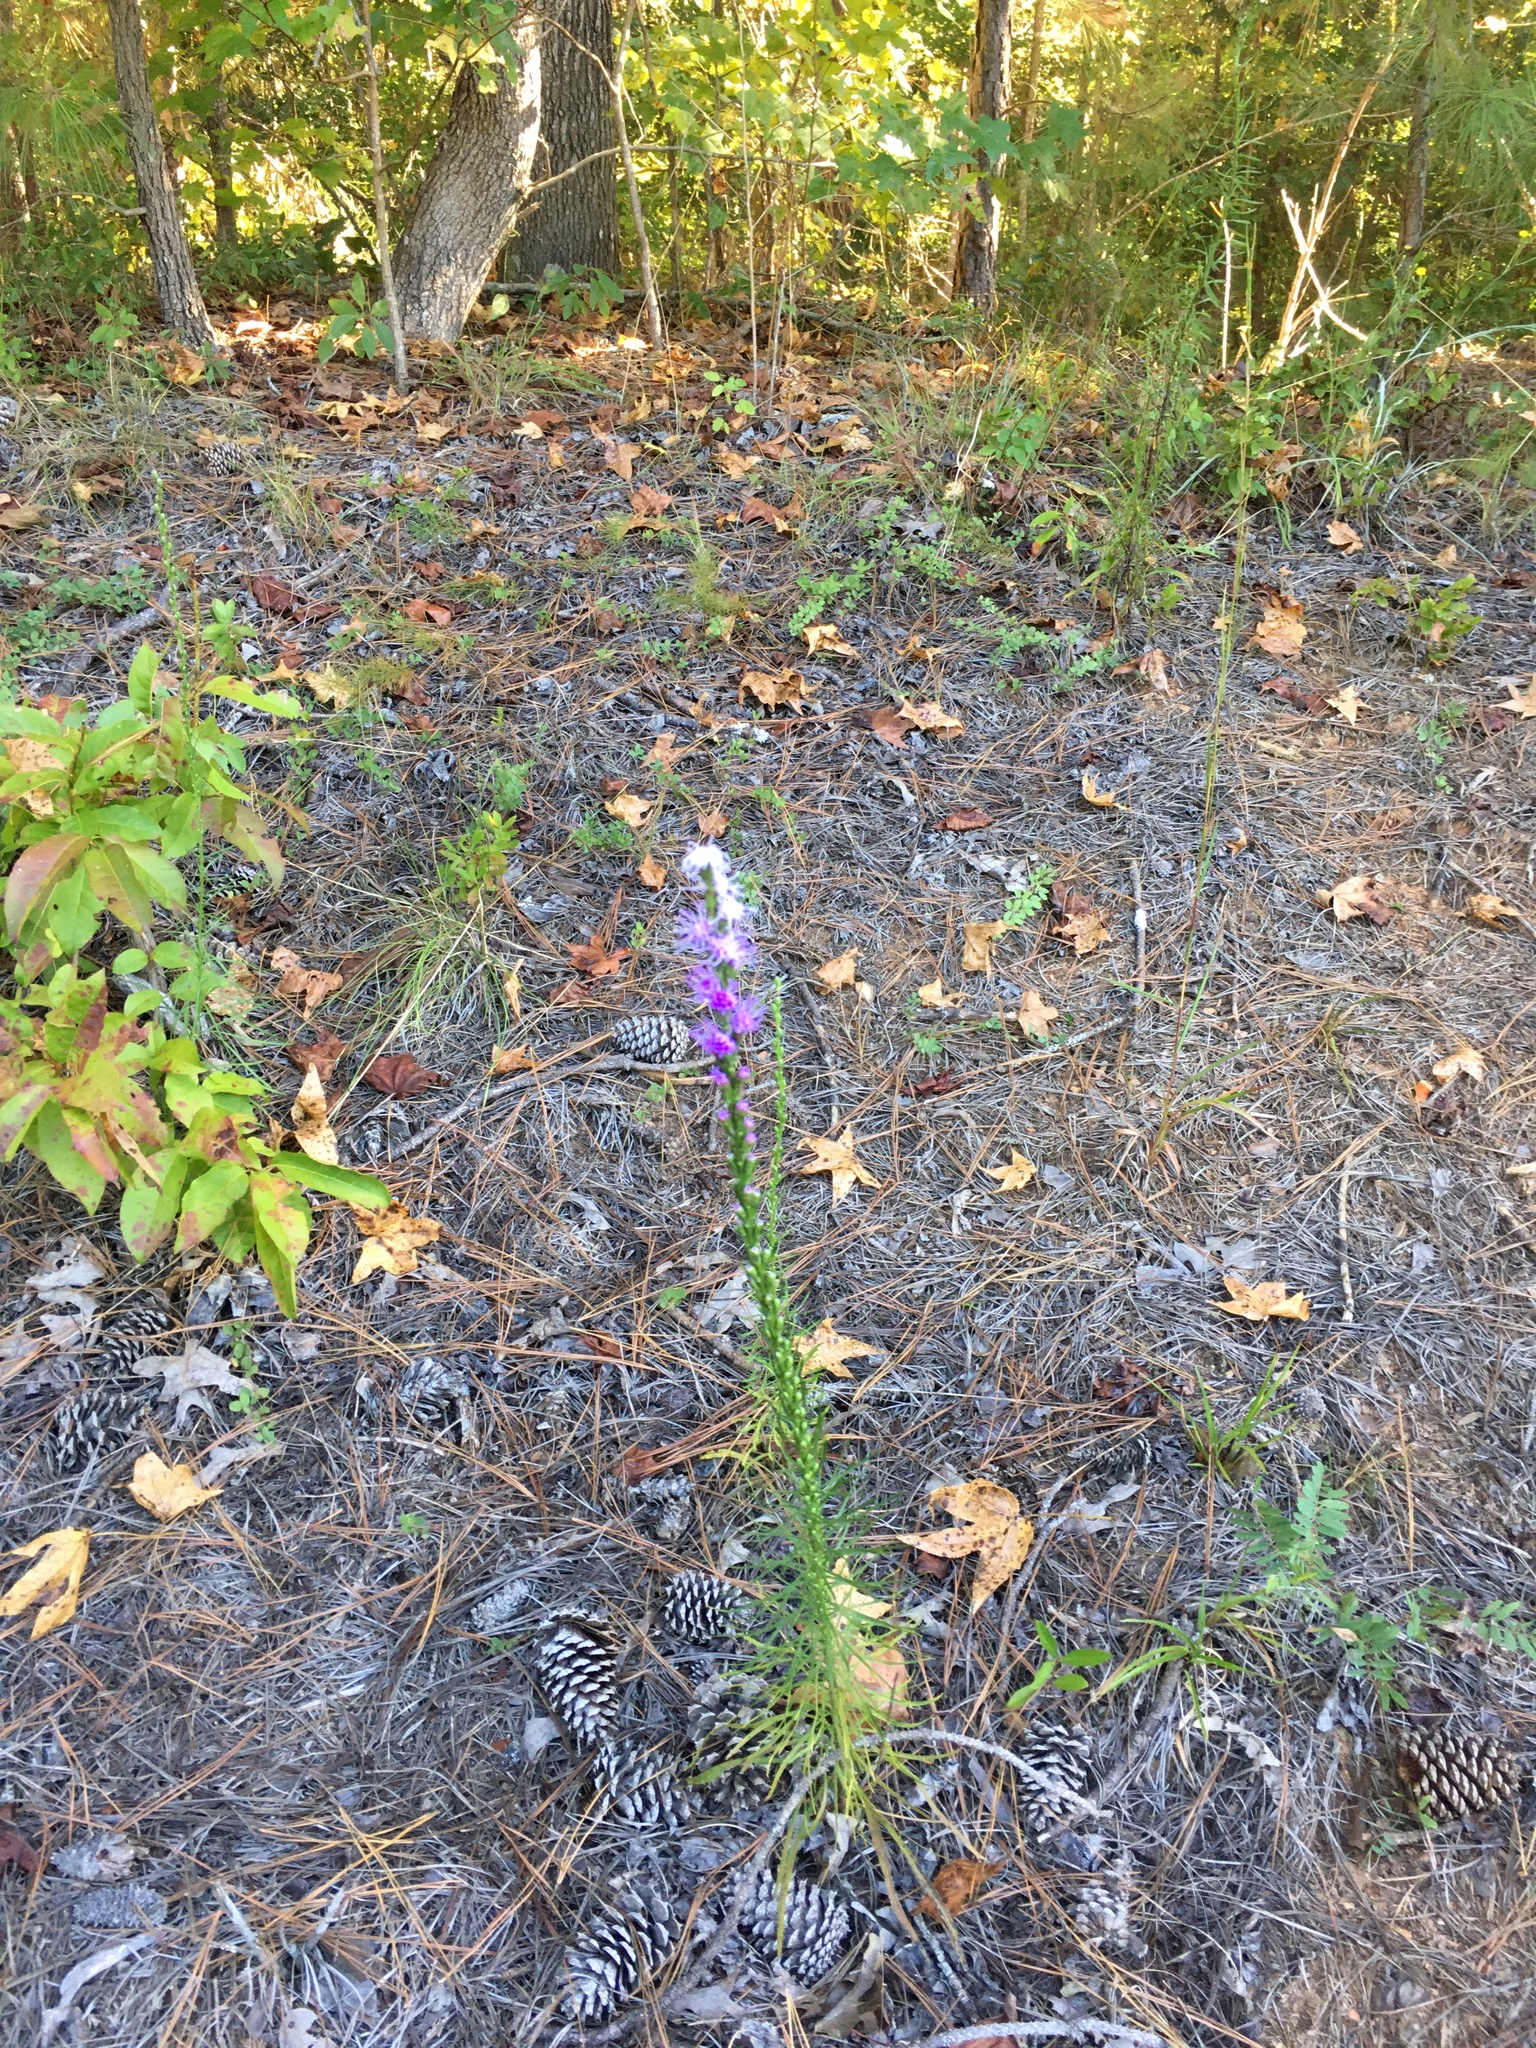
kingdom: Plantae
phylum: Tracheophyta
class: Magnoliopsida
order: Asterales
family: Asteraceae
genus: Liatris
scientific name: Liatris pilosa
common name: Grass-leaf gayfeather
